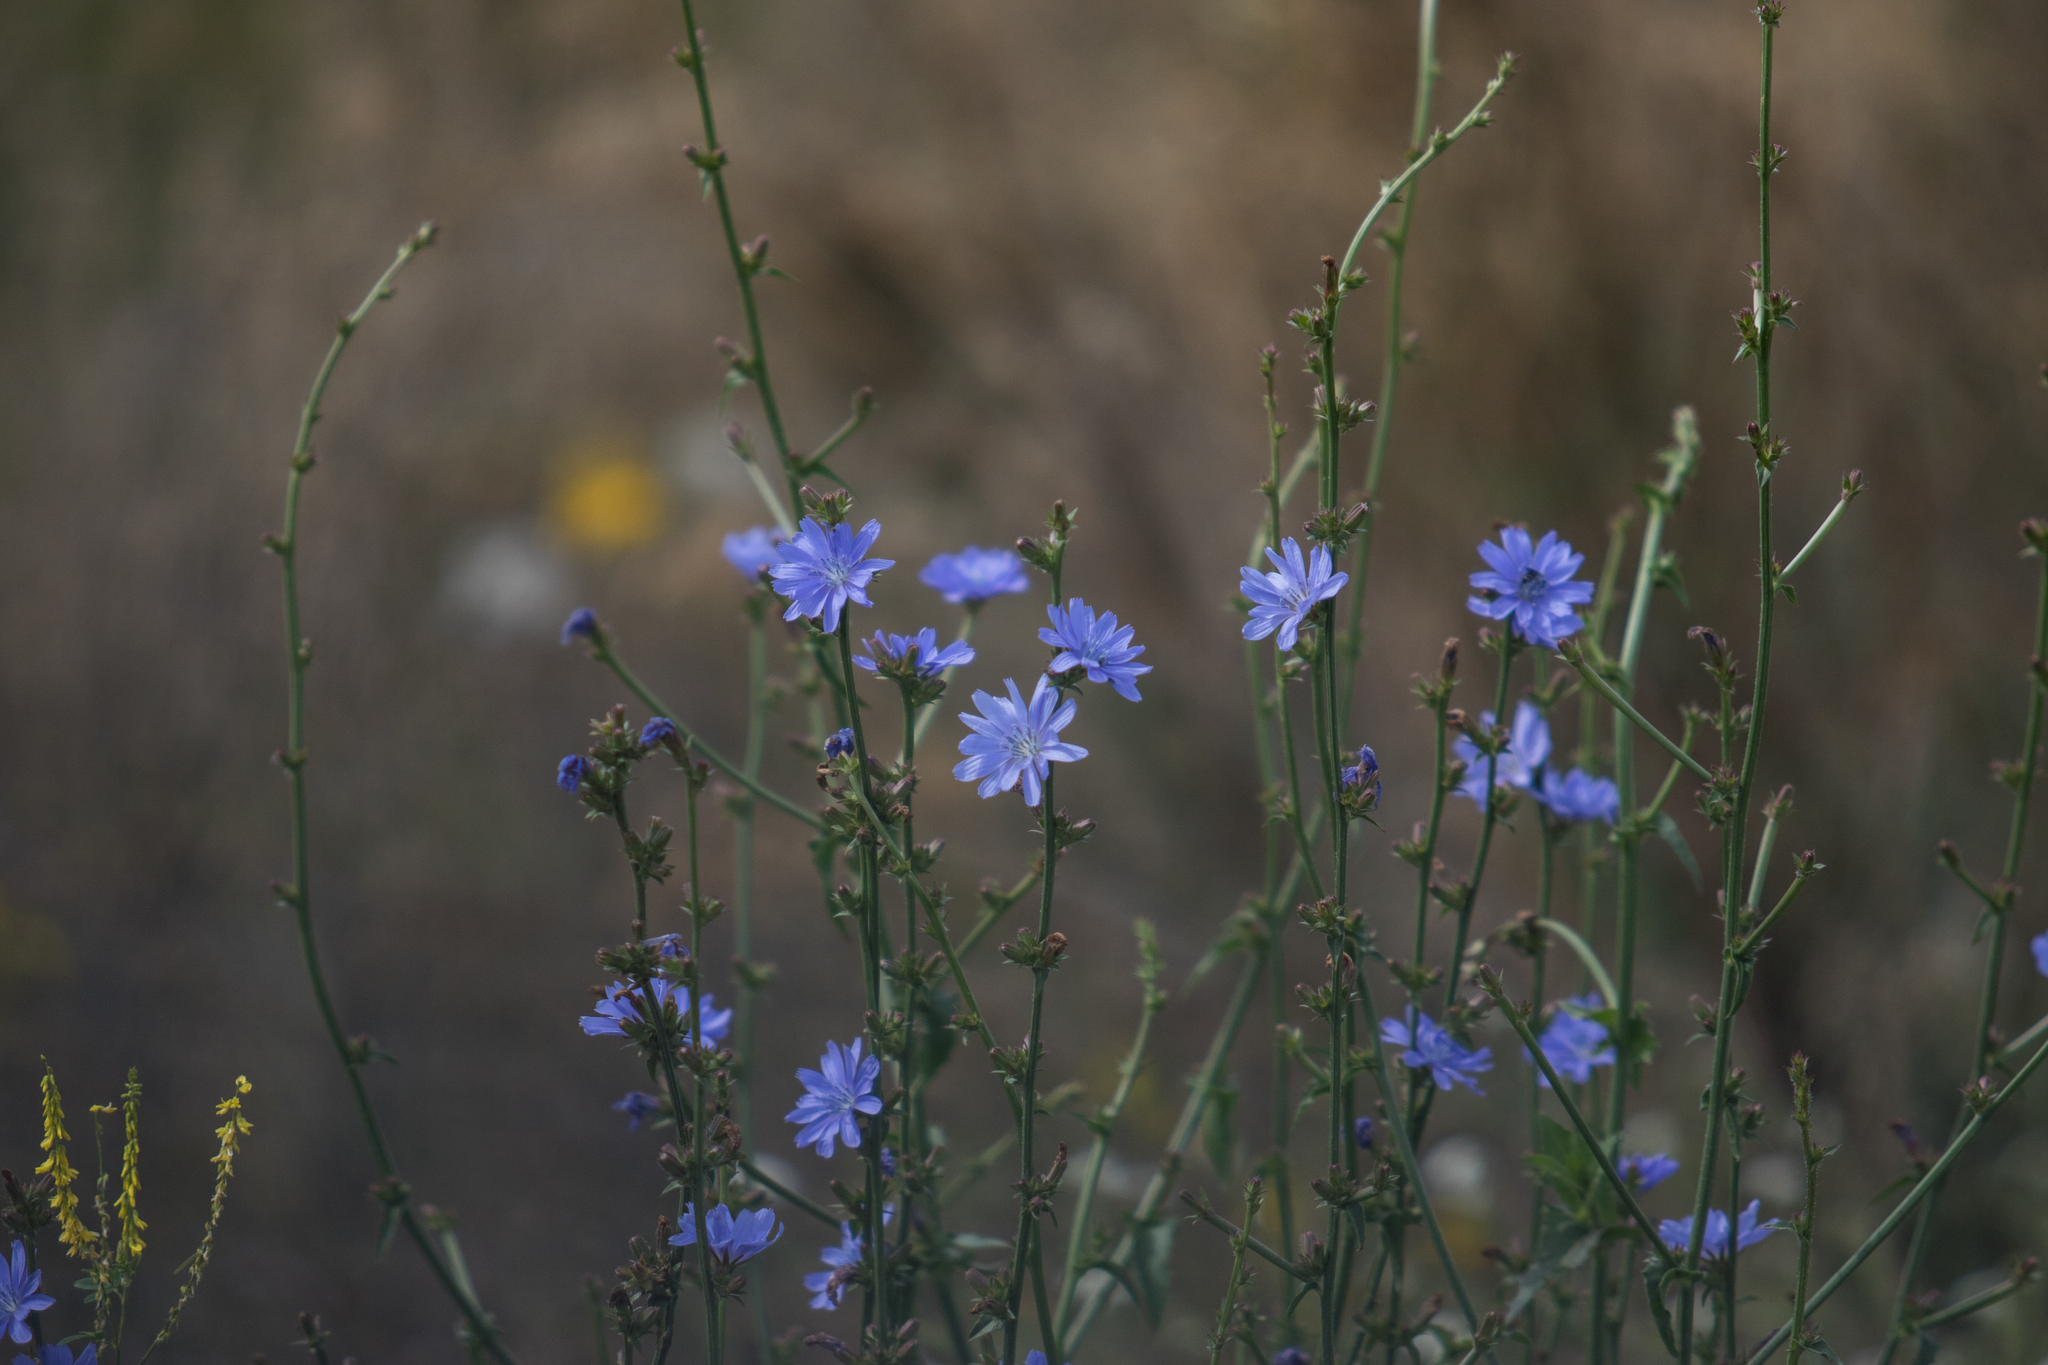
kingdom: Plantae
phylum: Tracheophyta
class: Magnoliopsida
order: Asterales
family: Asteraceae
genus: Cichorium
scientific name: Cichorium intybus
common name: Chicory
